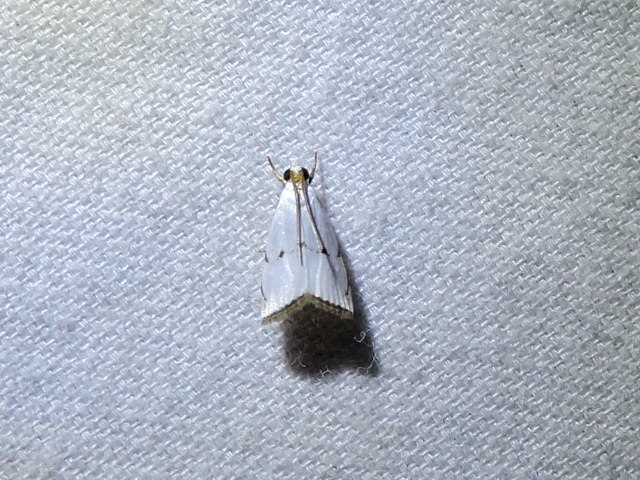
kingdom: Animalia
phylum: Arthropoda
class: Insecta
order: Lepidoptera
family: Crambidae
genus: Argyria
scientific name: Argyria pusillalis
